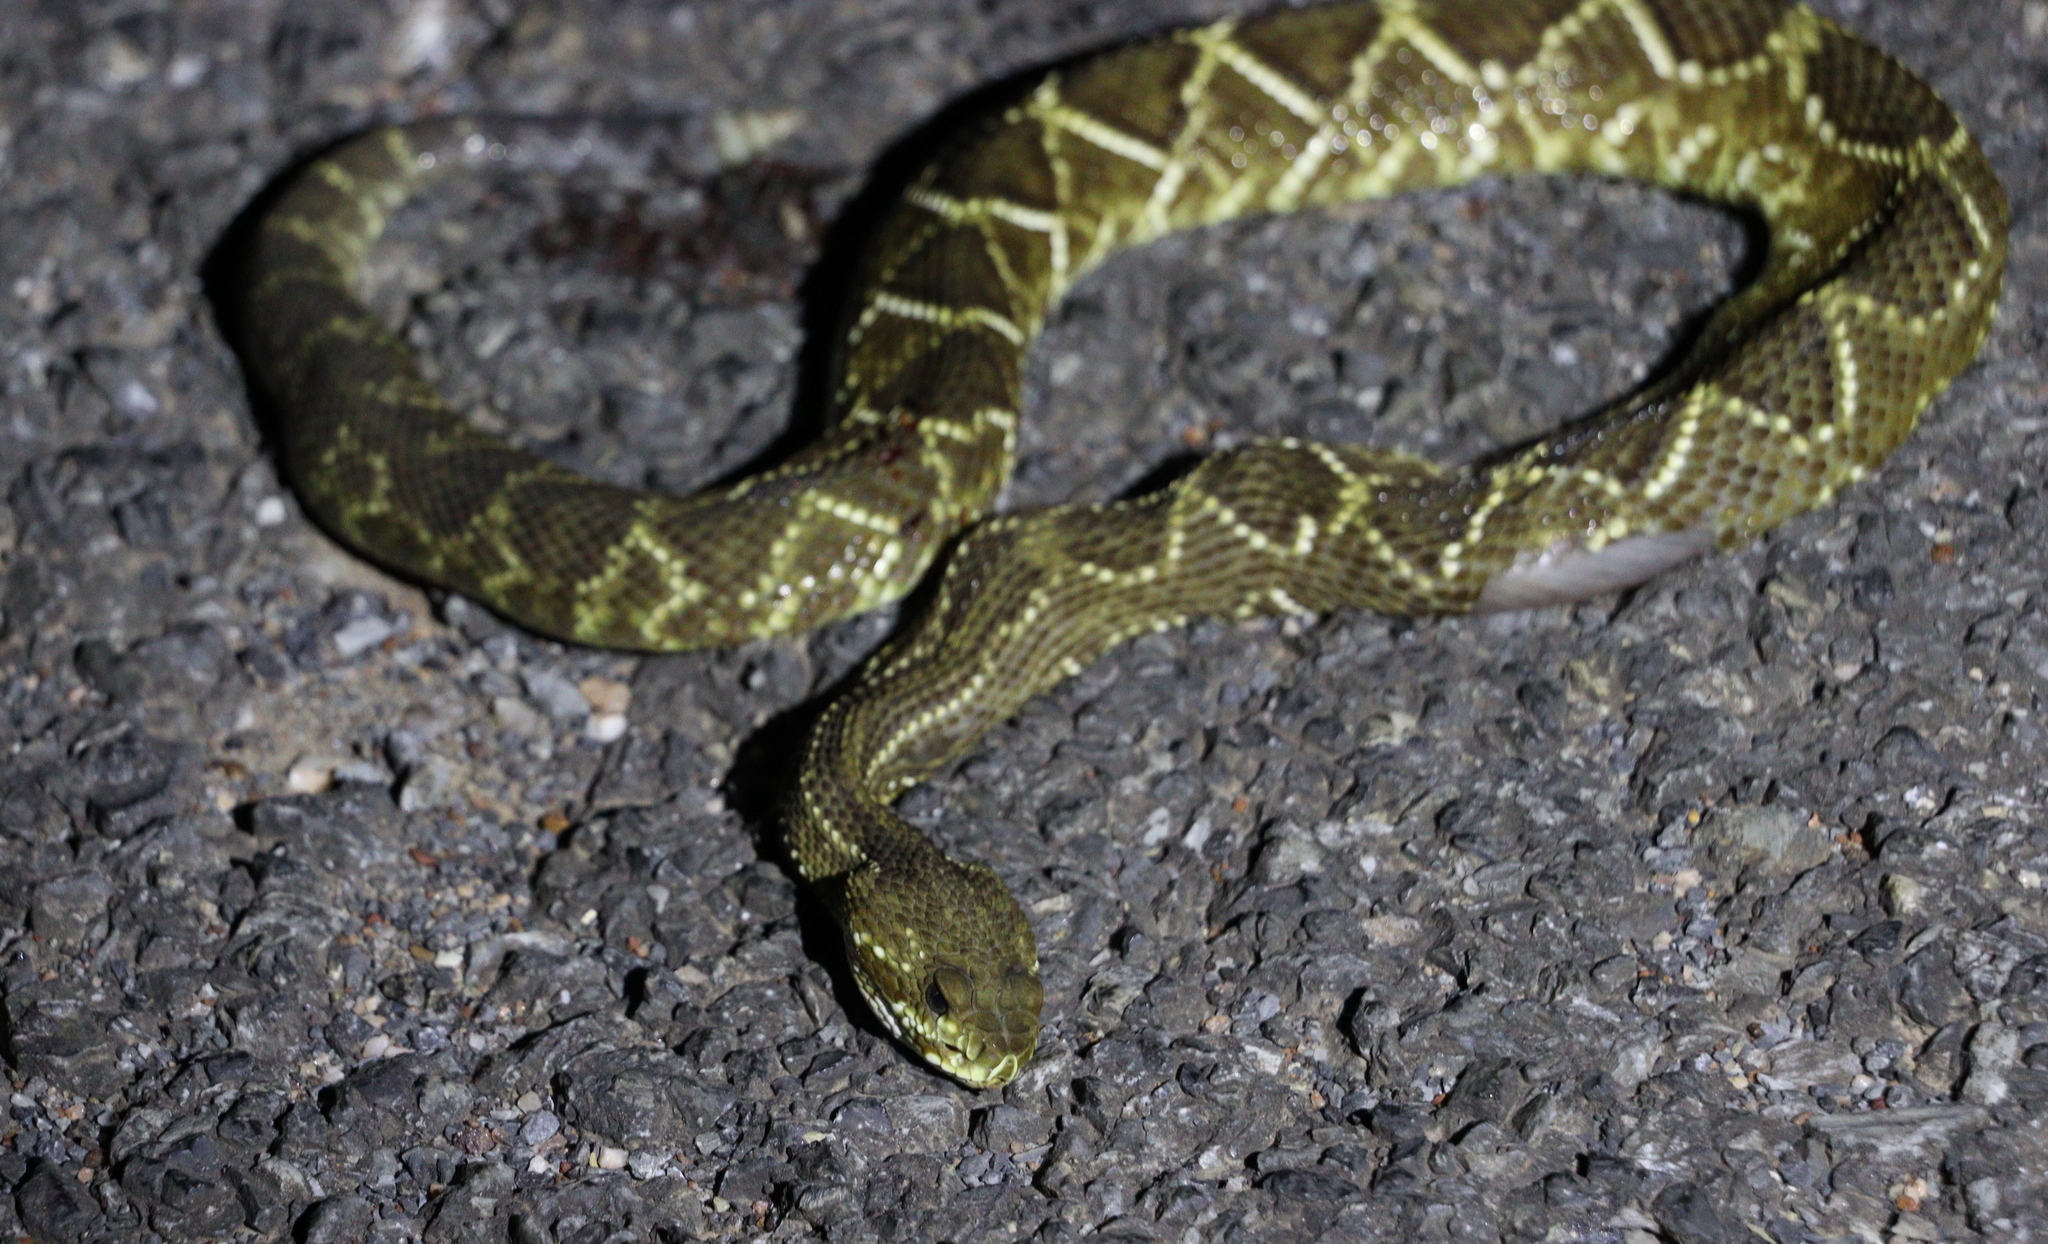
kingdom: Animalia
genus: Crotalus
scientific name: Crotalus durissus
